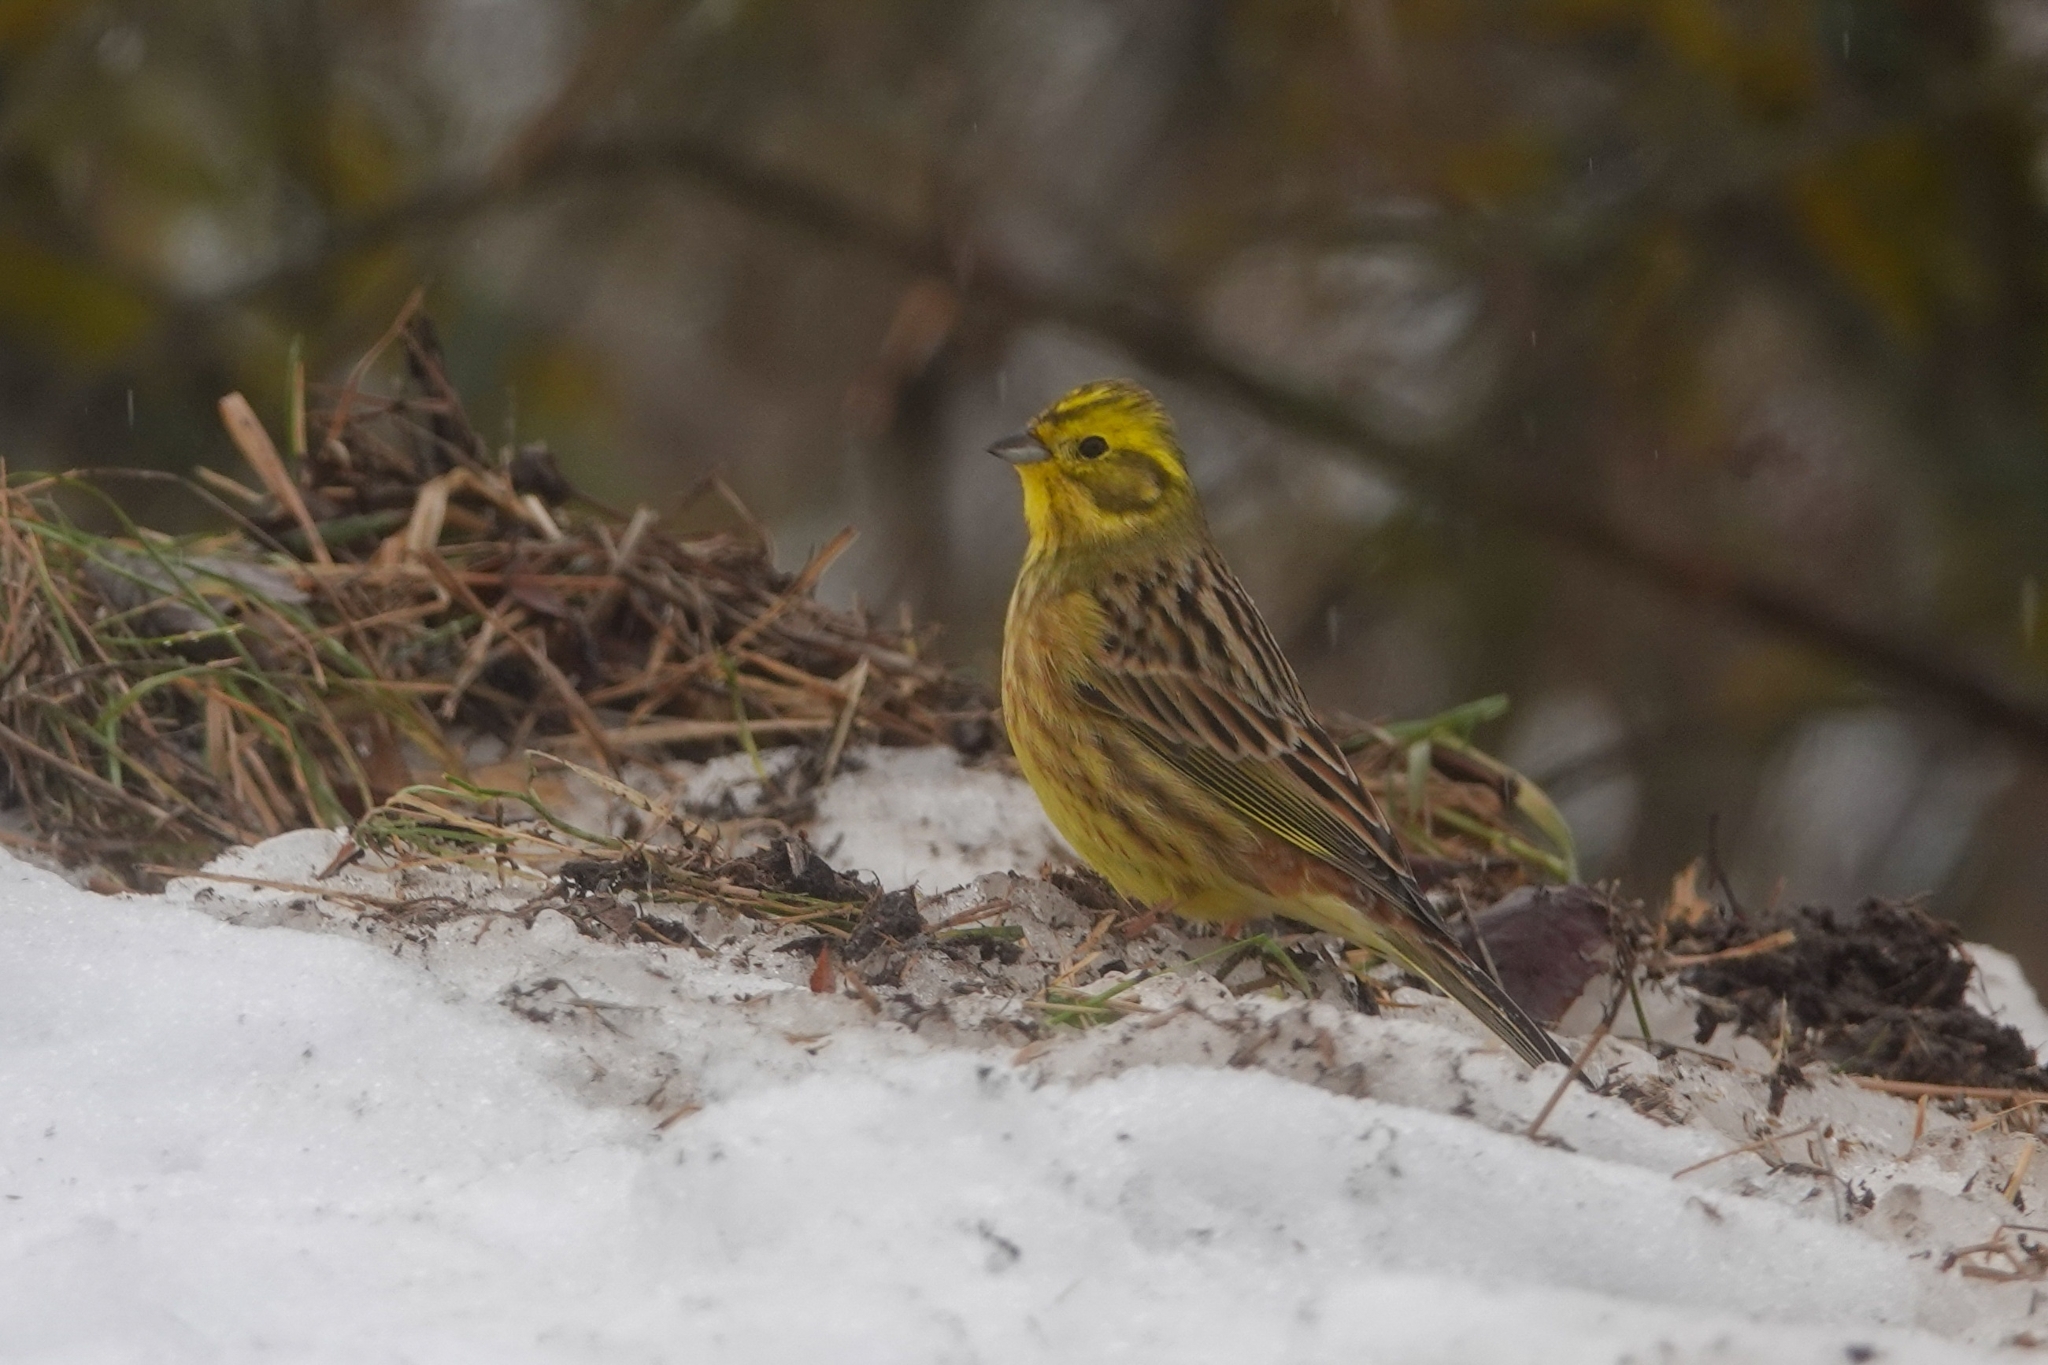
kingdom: Animalia
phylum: Chordata
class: Aves
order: Passeriformes
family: Emberizidae
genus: Emberiza
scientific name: Emberiza citrinella
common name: Yellowhammer
